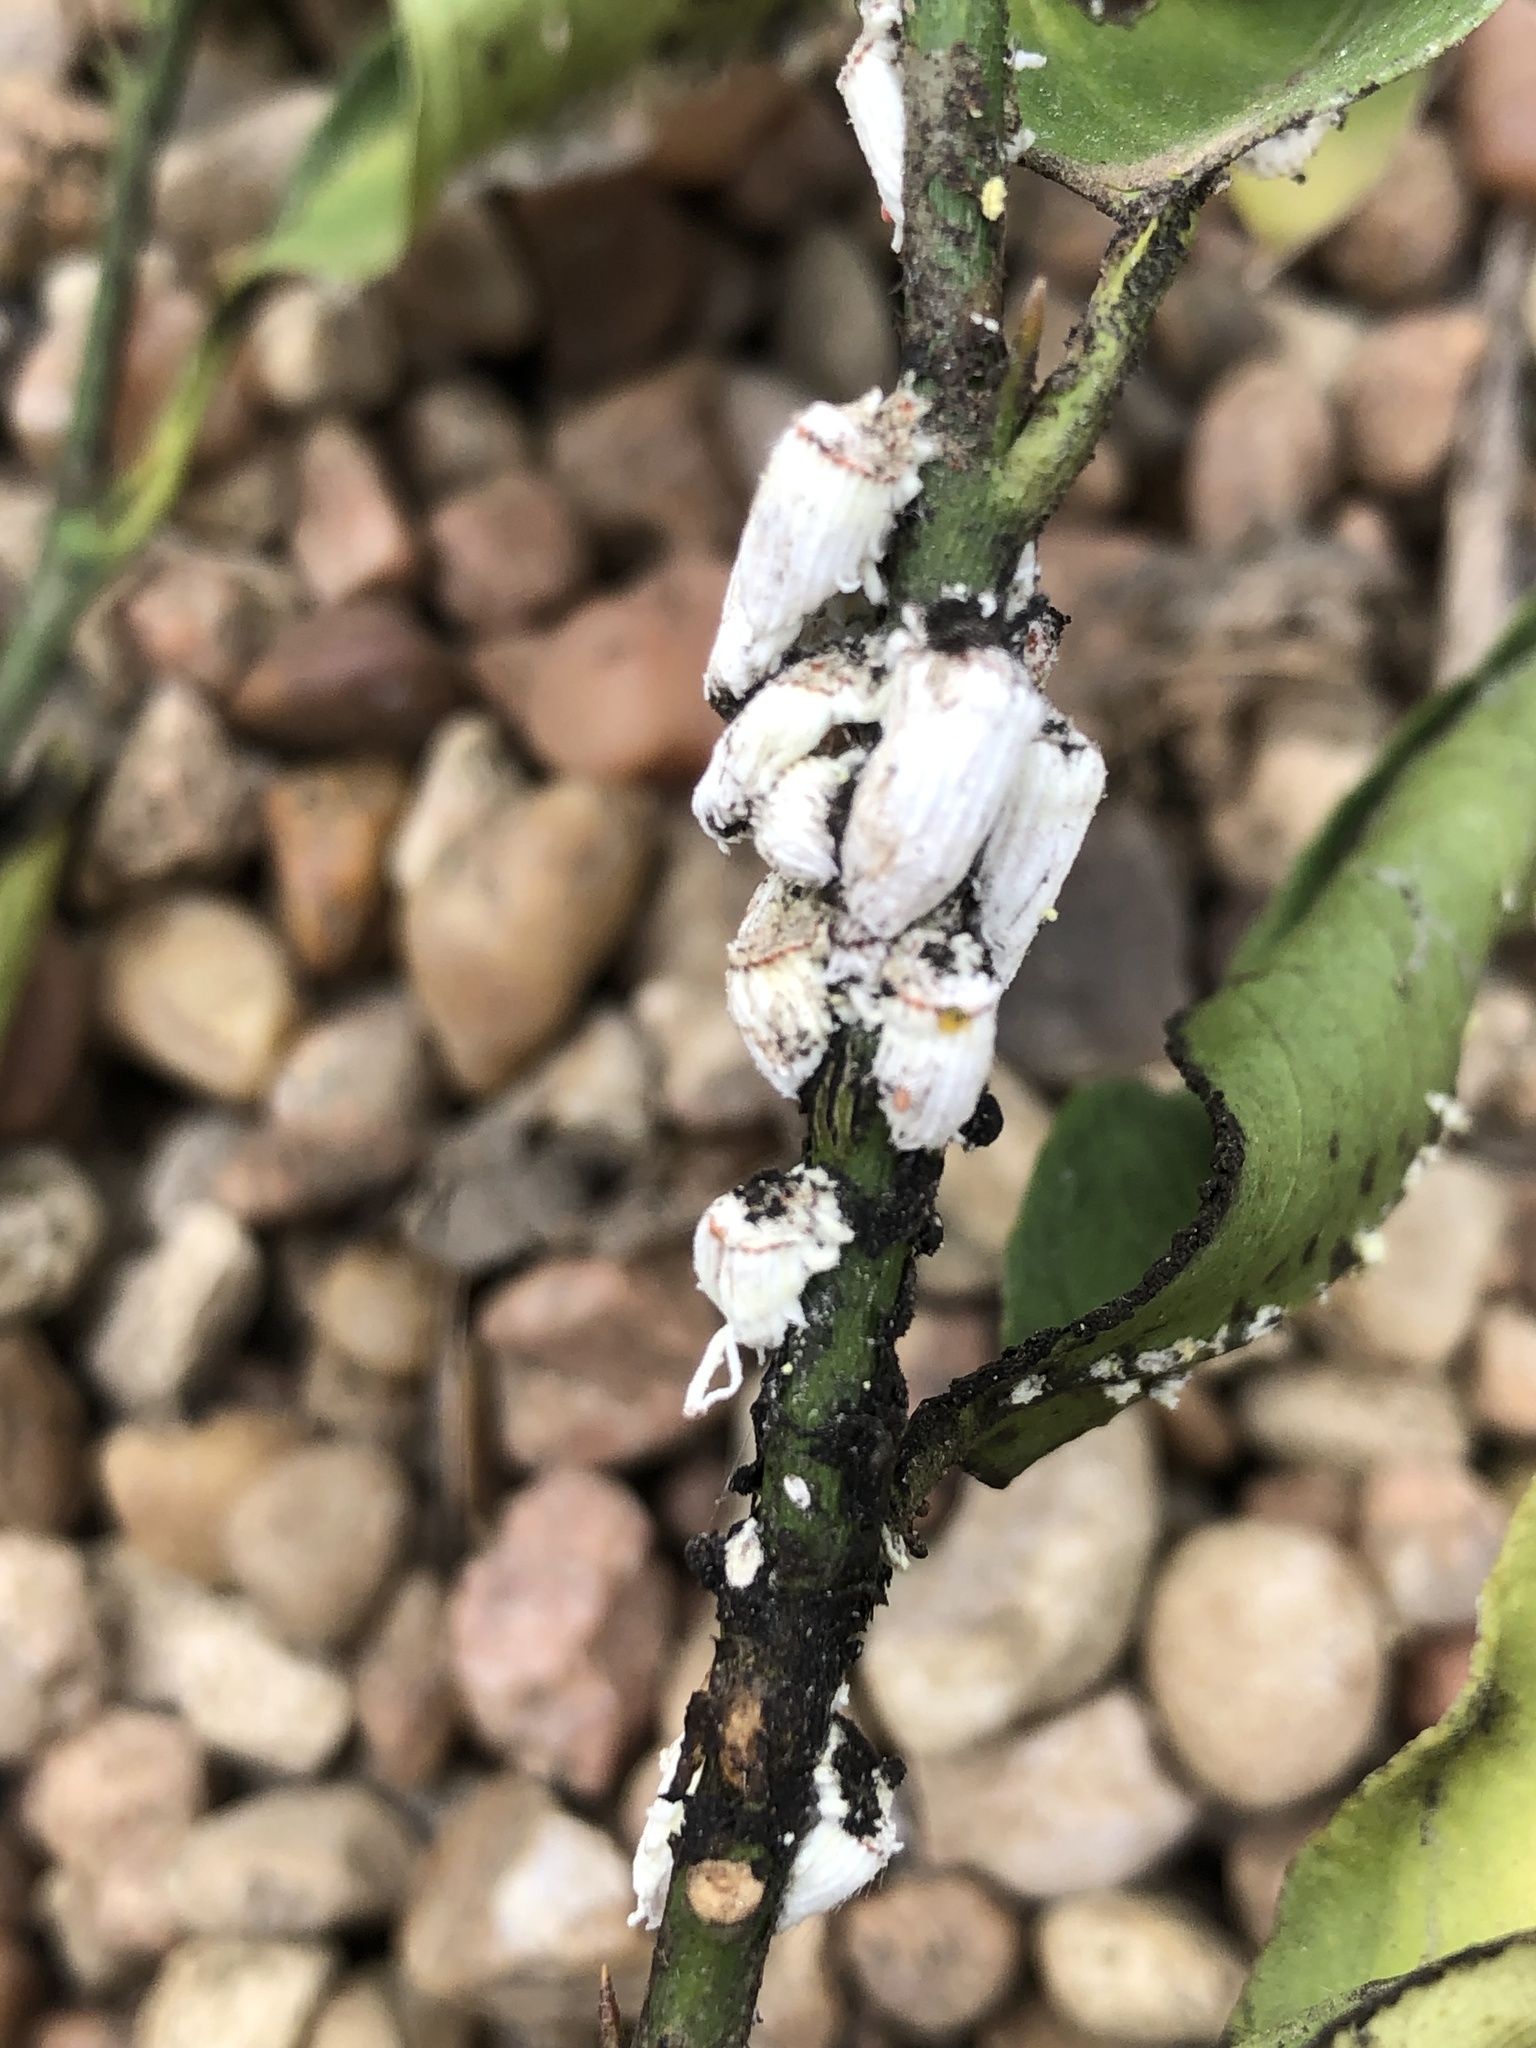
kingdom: Animalia
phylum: Arthropoda
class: Insecta
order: Hemiptera
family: Margarodidae
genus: Icerya
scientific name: Icerya purchasi
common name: Cottony cushion scale
